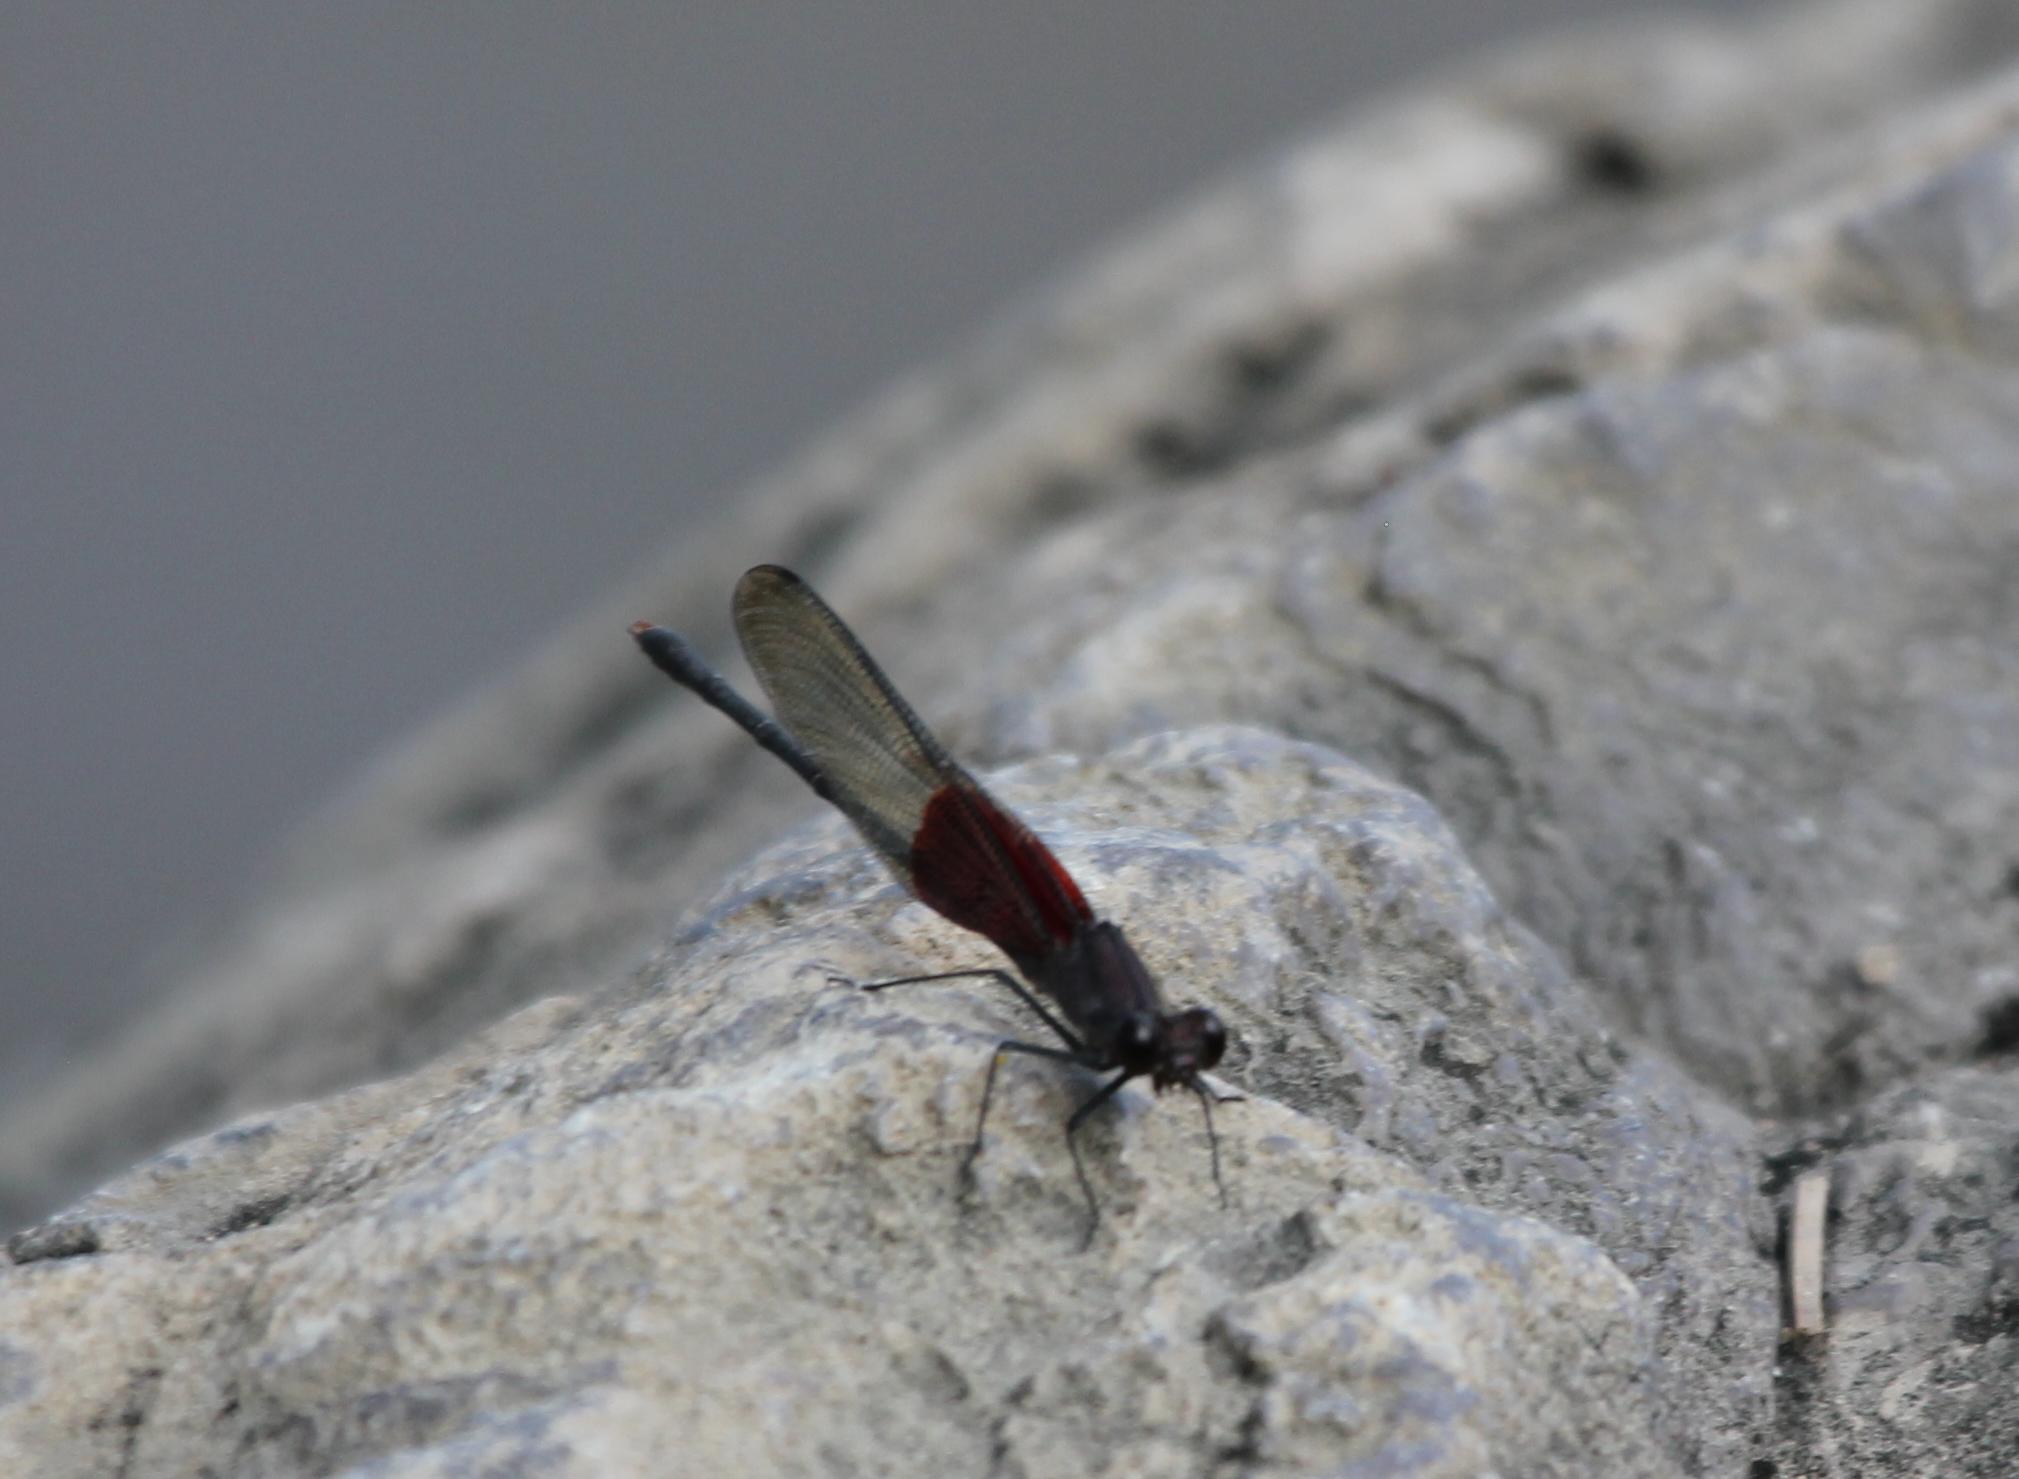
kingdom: Animalia
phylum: Arthropoda
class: Insecta
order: Odonata
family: Calopterygidae
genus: Hetaerina
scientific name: Hetaerina americana
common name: American rubyspot
